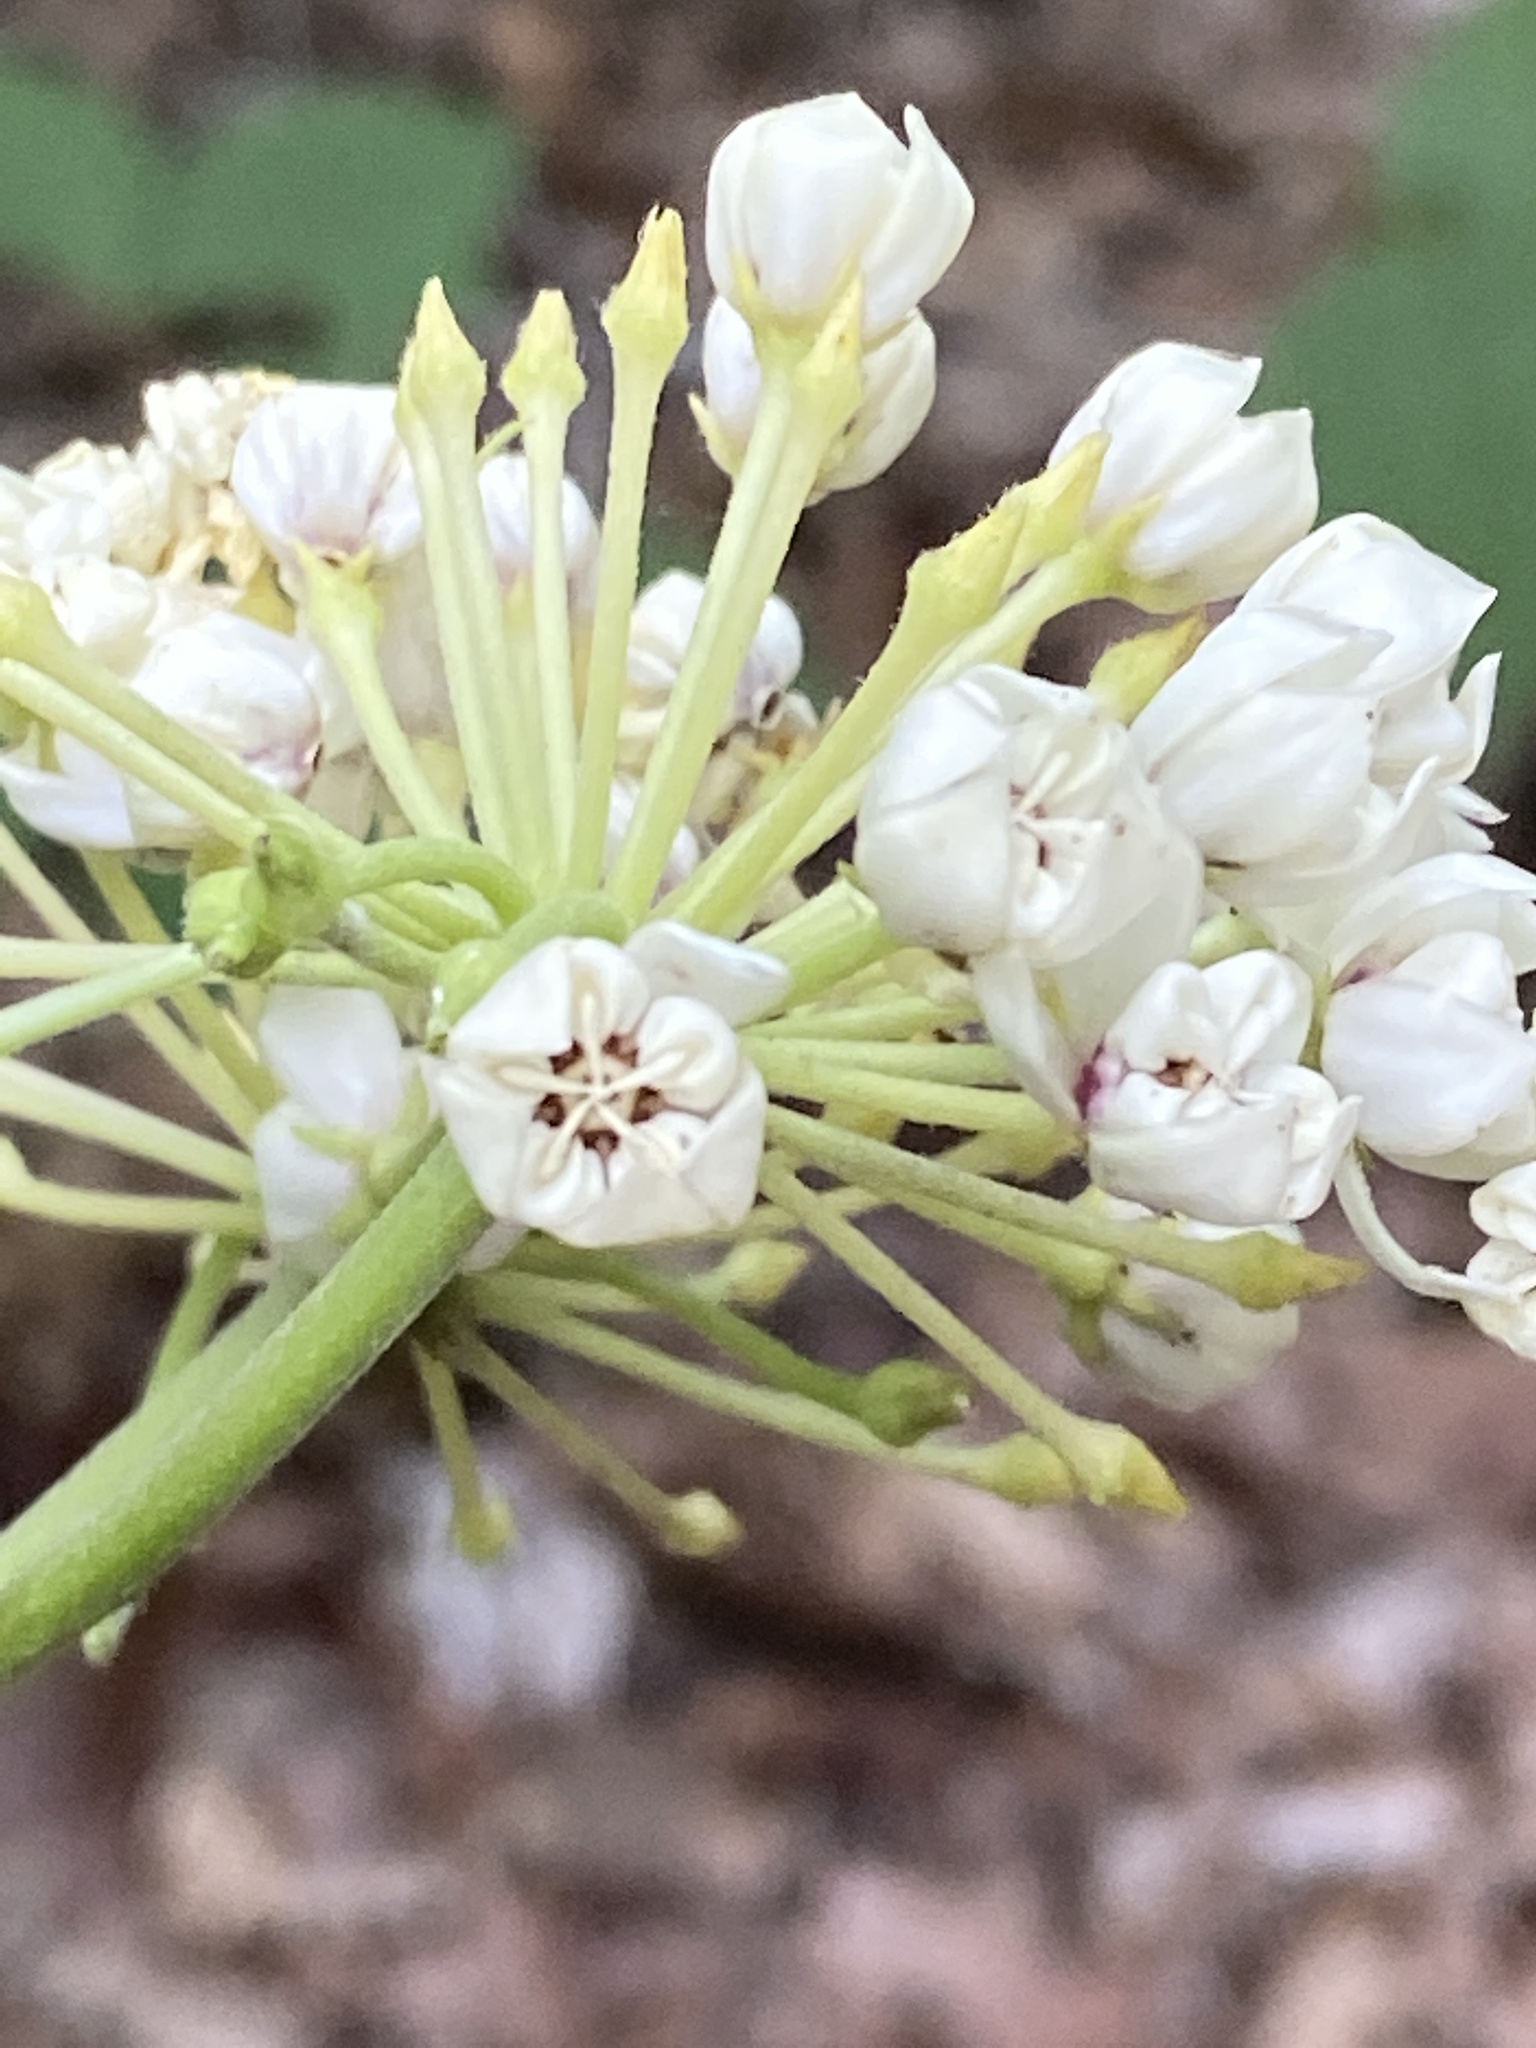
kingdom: Plantae
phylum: Tracheophyta
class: Magnoliopsida
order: Gentianales
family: Apocynaceae
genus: Asclepias
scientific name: Asclepias variegata
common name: Variegated milkweed
